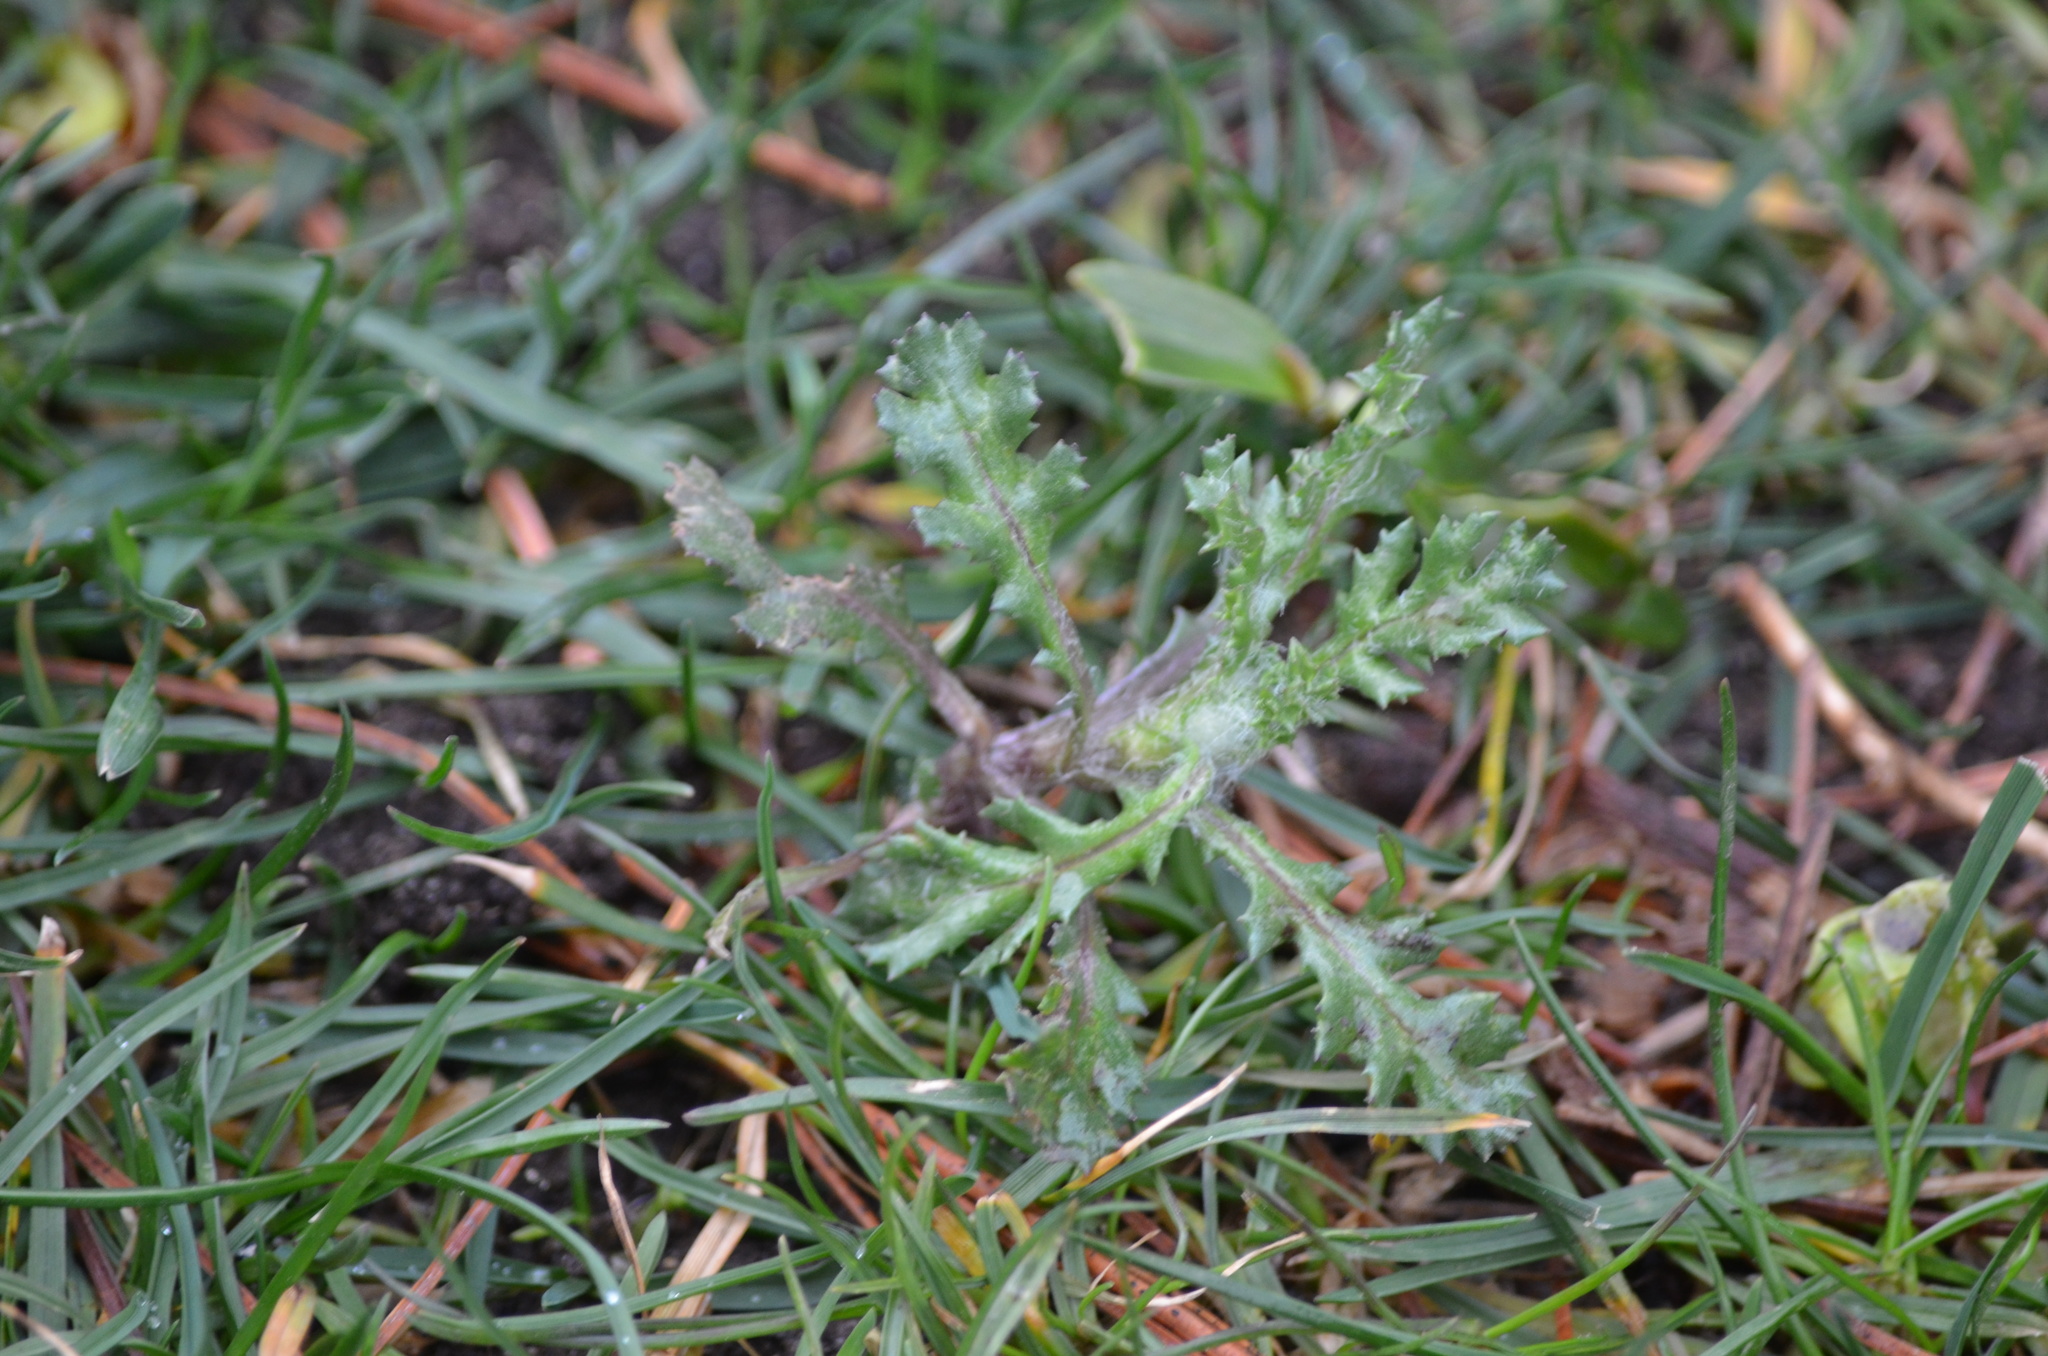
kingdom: Plantae
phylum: Tracheophyta
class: Magnoliopsida
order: Asterales
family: Asteraceae
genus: Senecio
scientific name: Senecio vulgaris
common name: Old-man-in-the-spring
